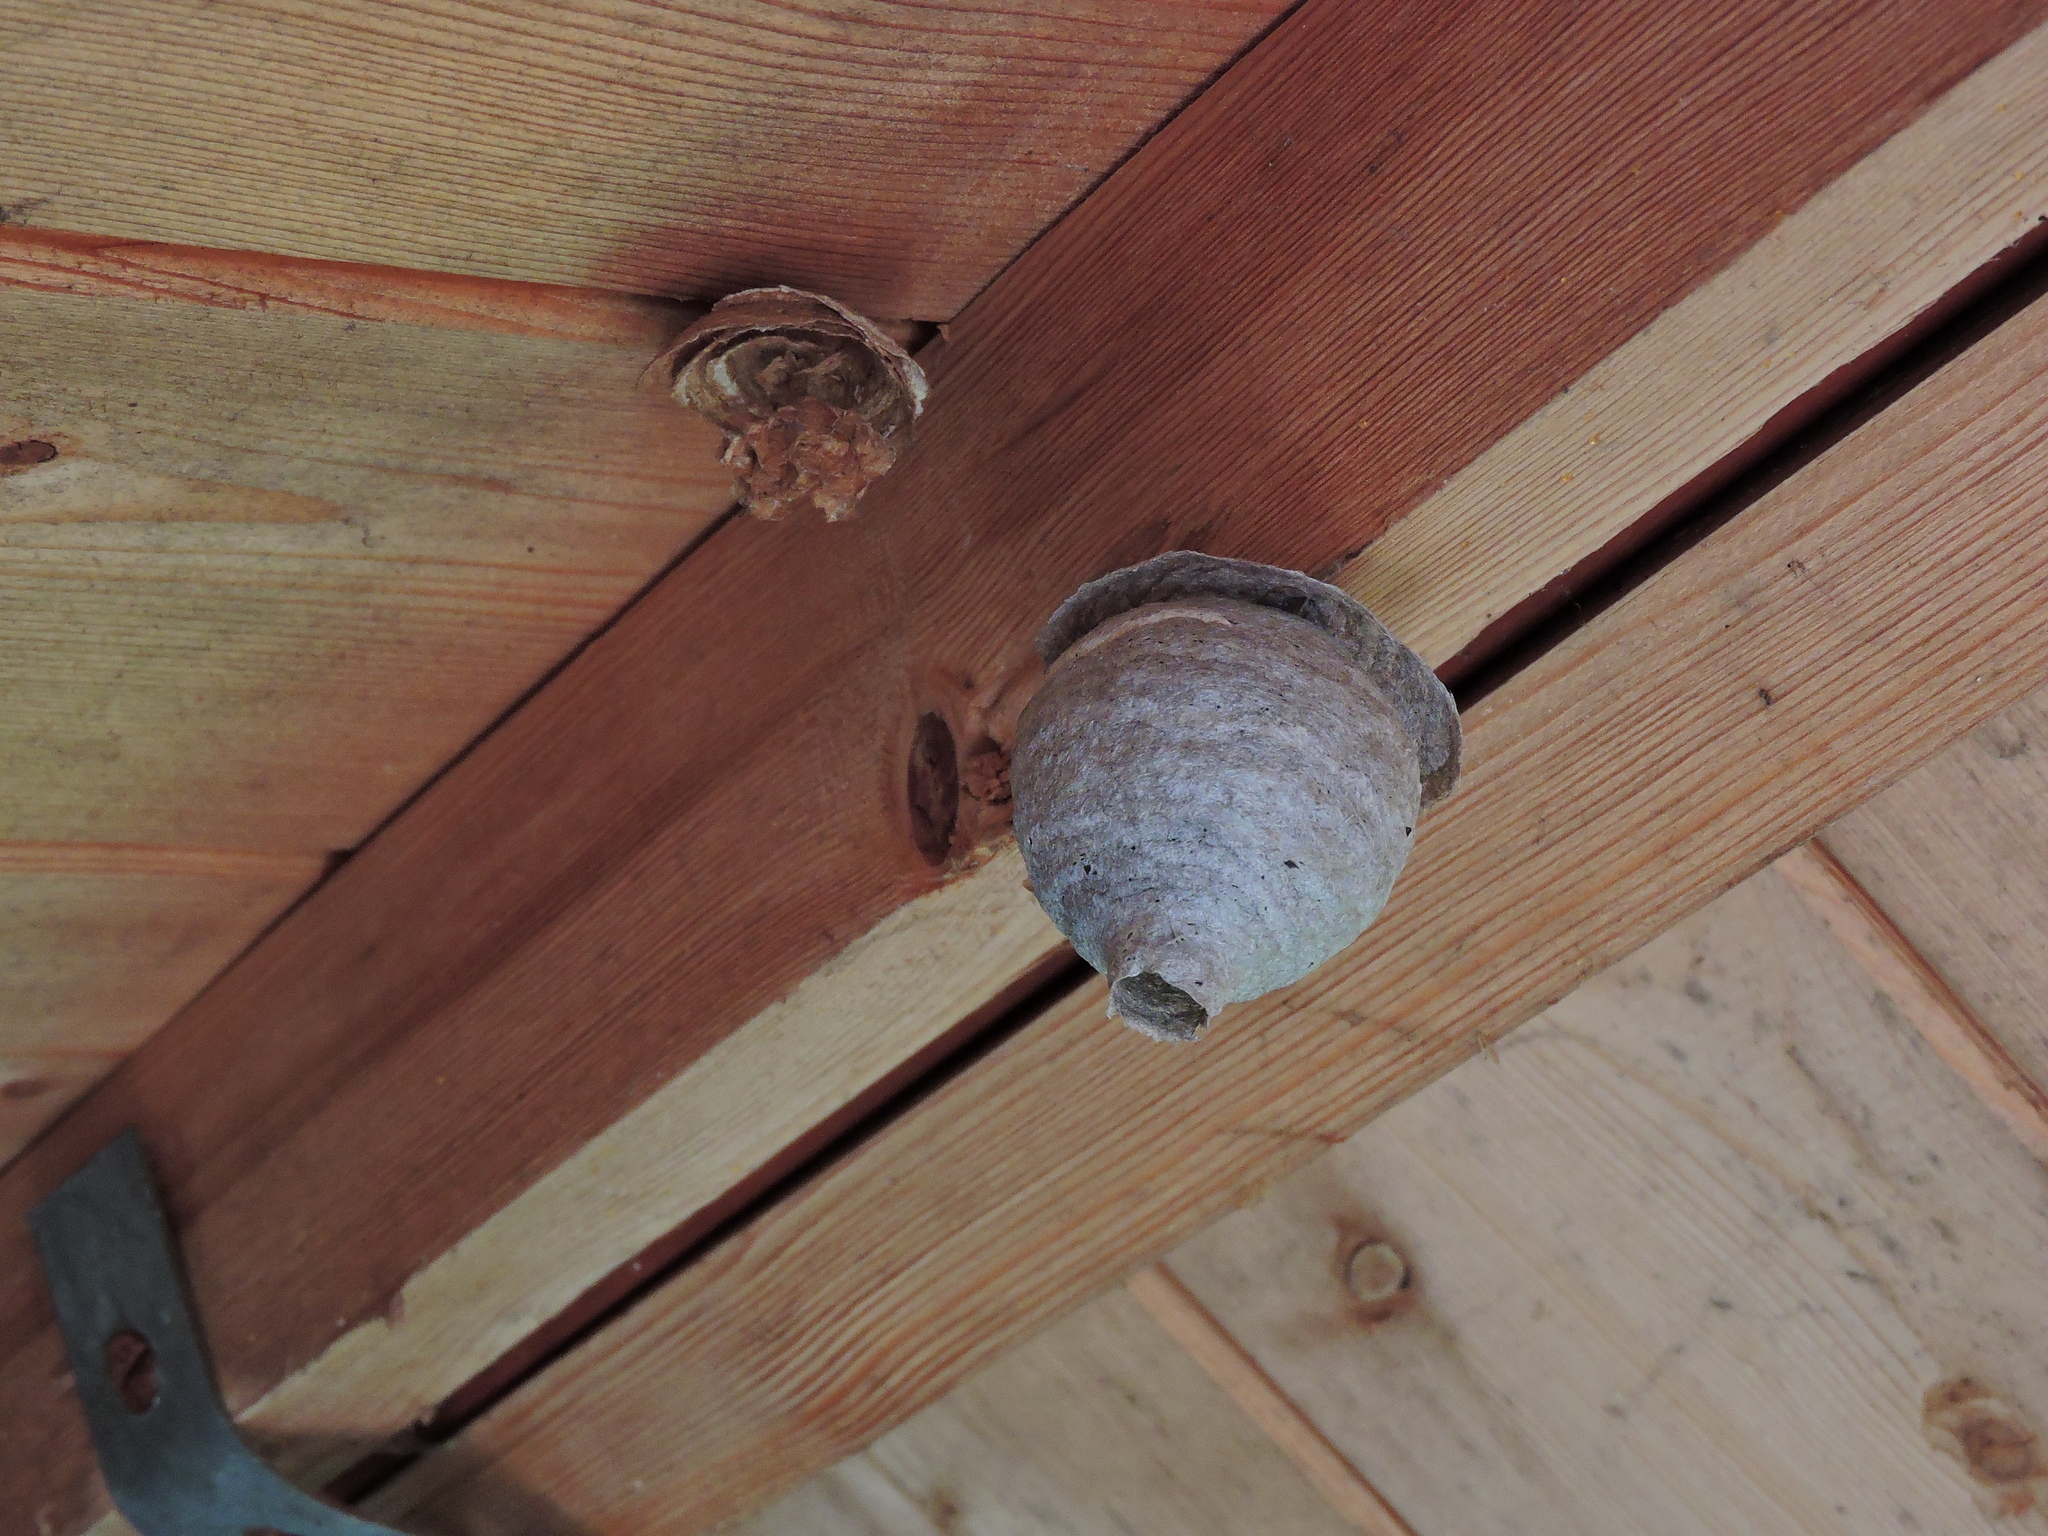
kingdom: Animalia
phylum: Arthropoda
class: Insecta
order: Hymenoptera
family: Vespidae
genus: Dolichovespula
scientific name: Dolichovespula saxonica
